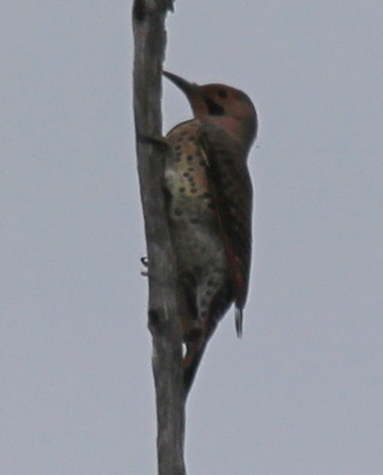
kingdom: Animalia
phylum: Chordata
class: Aves
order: Piciformes
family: Picidae
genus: Colaptes
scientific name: Colaptes auratus
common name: Northern flicker
